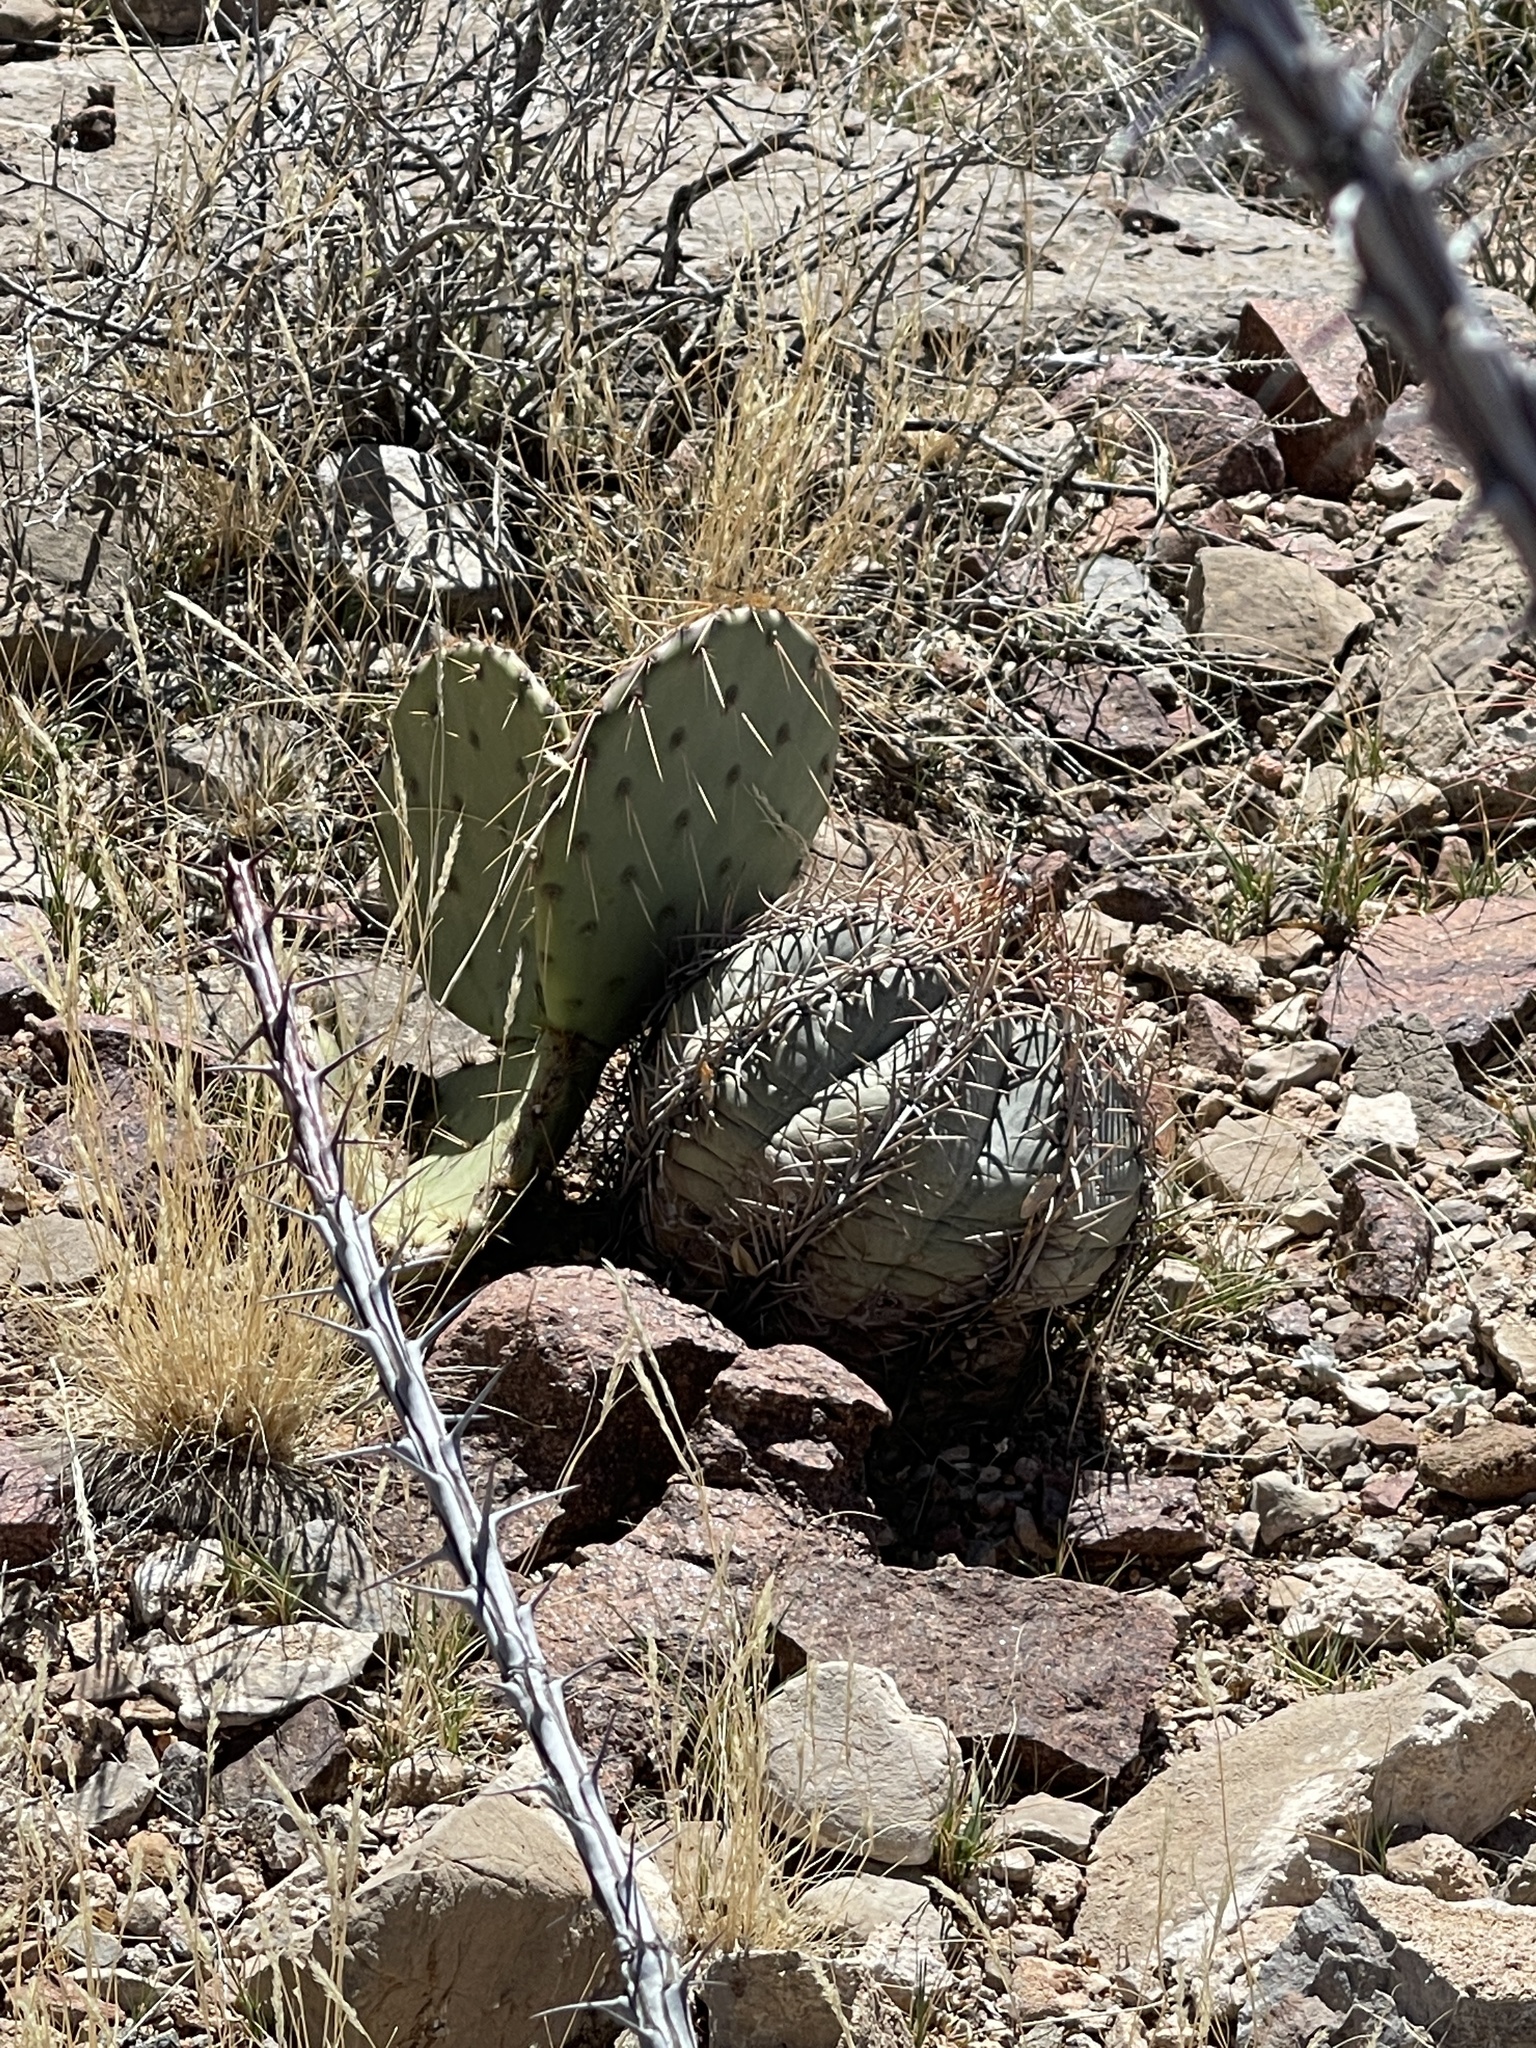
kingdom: Plantae
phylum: Tracheophyta
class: Magnoliopsida
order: Caryophyllales
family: Cactaceae
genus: Echinocactus
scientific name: Echinocactus horizonthalonius
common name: Devilshead
